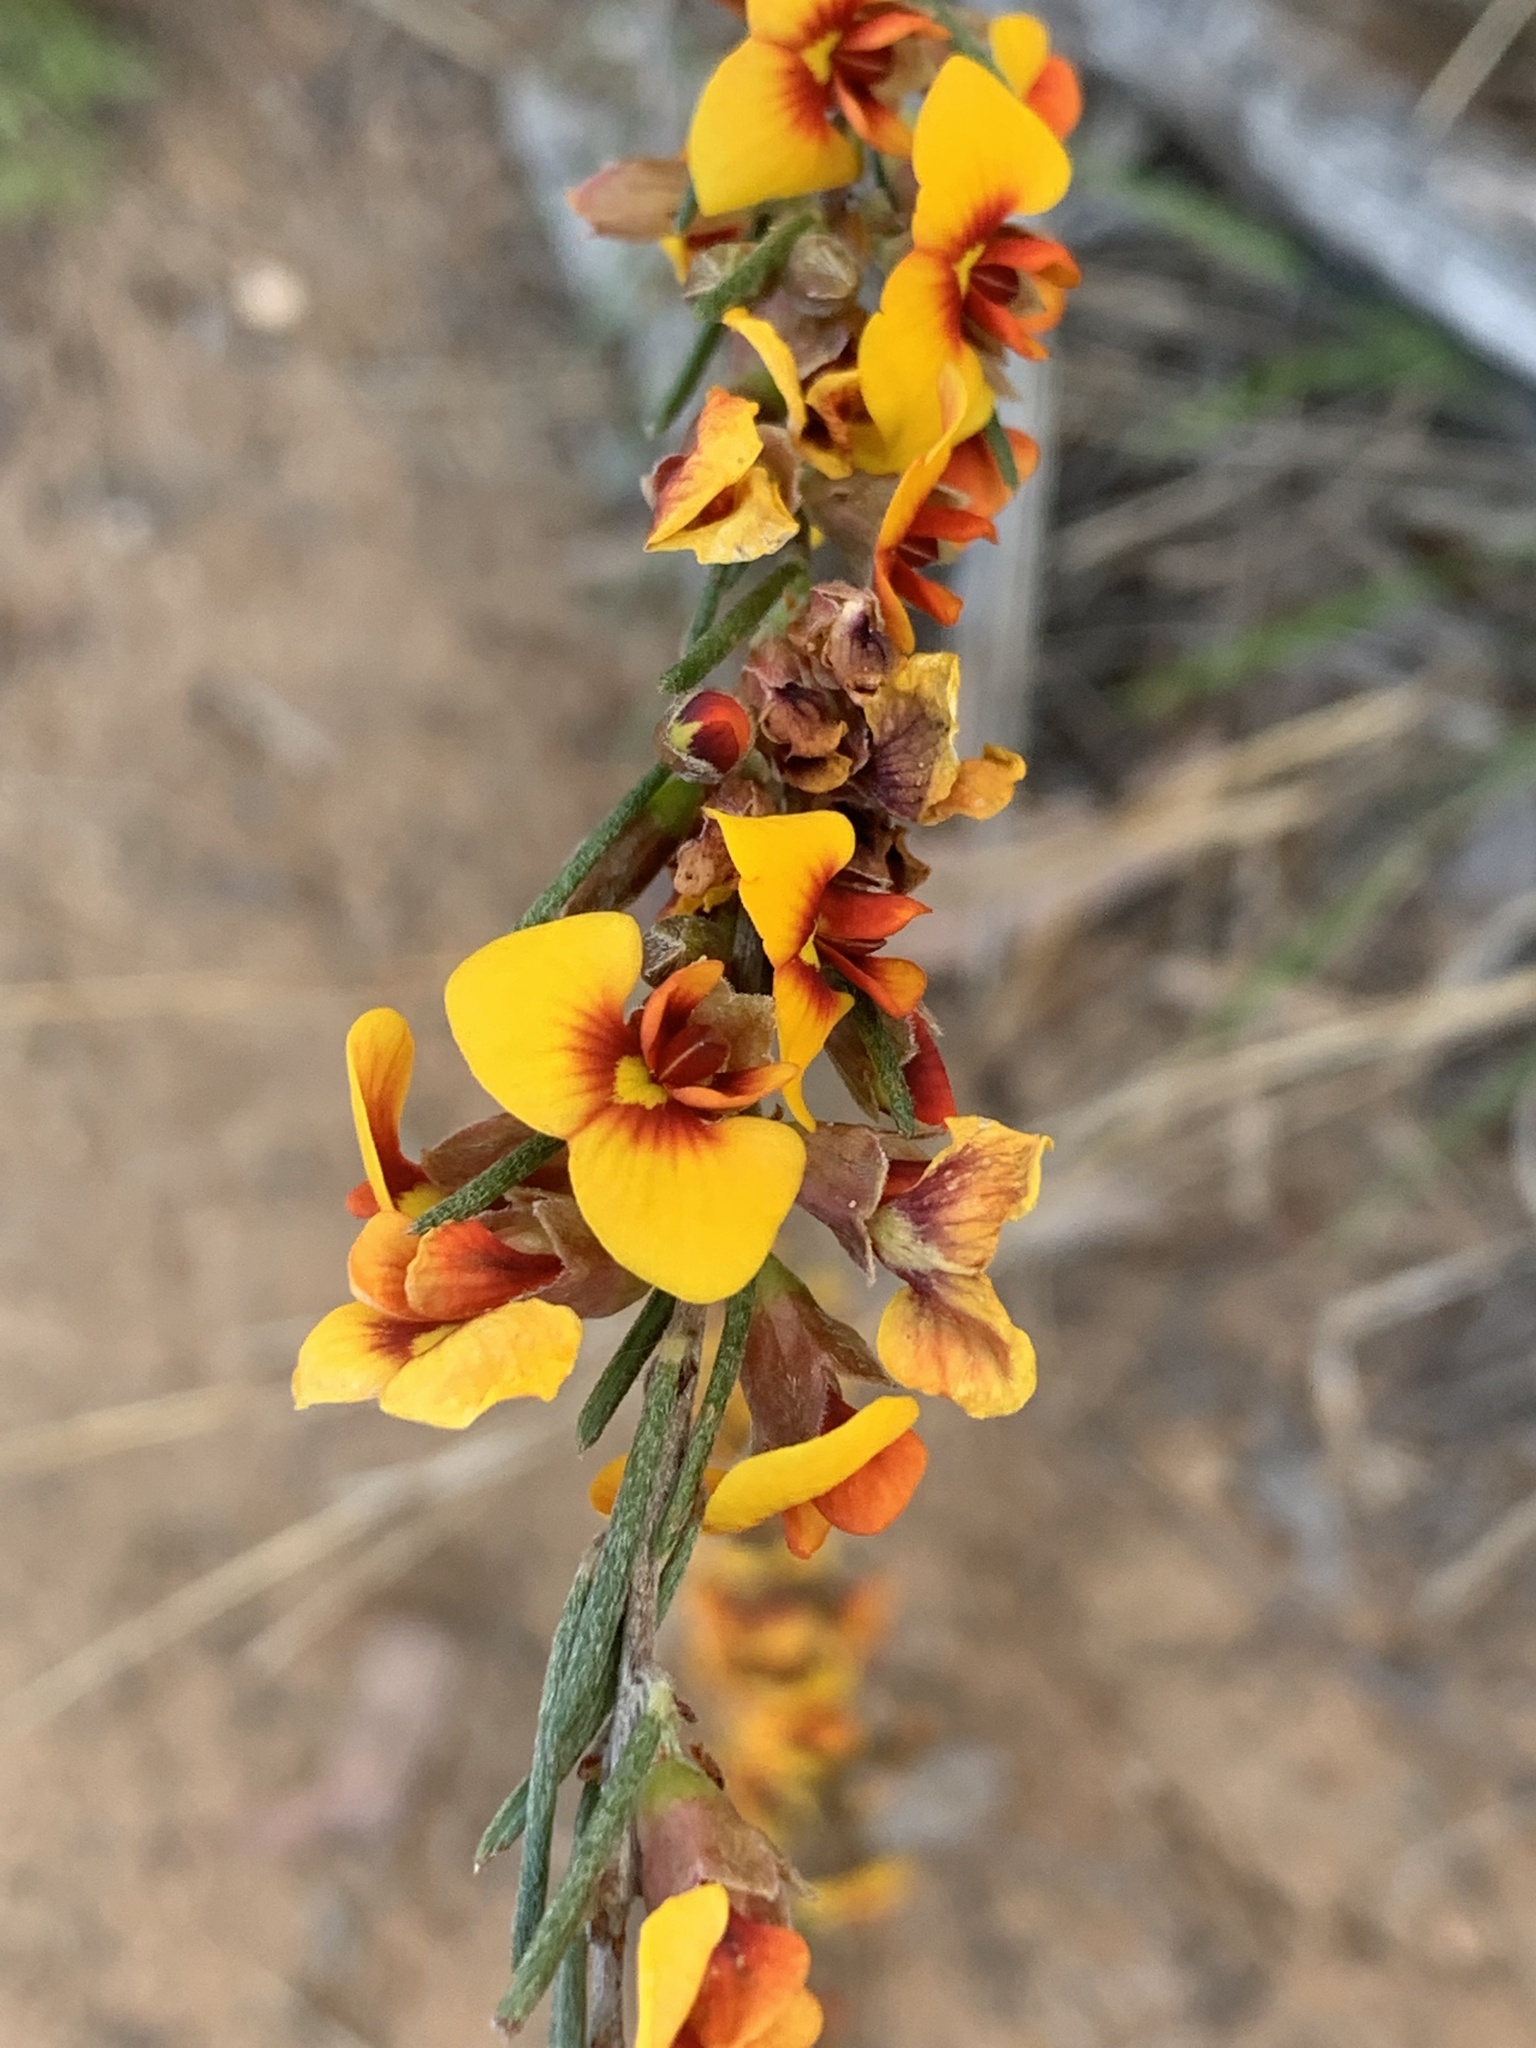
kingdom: Plantae
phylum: Tracheophyta
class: Magnoliopsida
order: Fabales
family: Fabaceae
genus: Dillwynia
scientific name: Dillwynia sericea
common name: Showy parrot-pea
